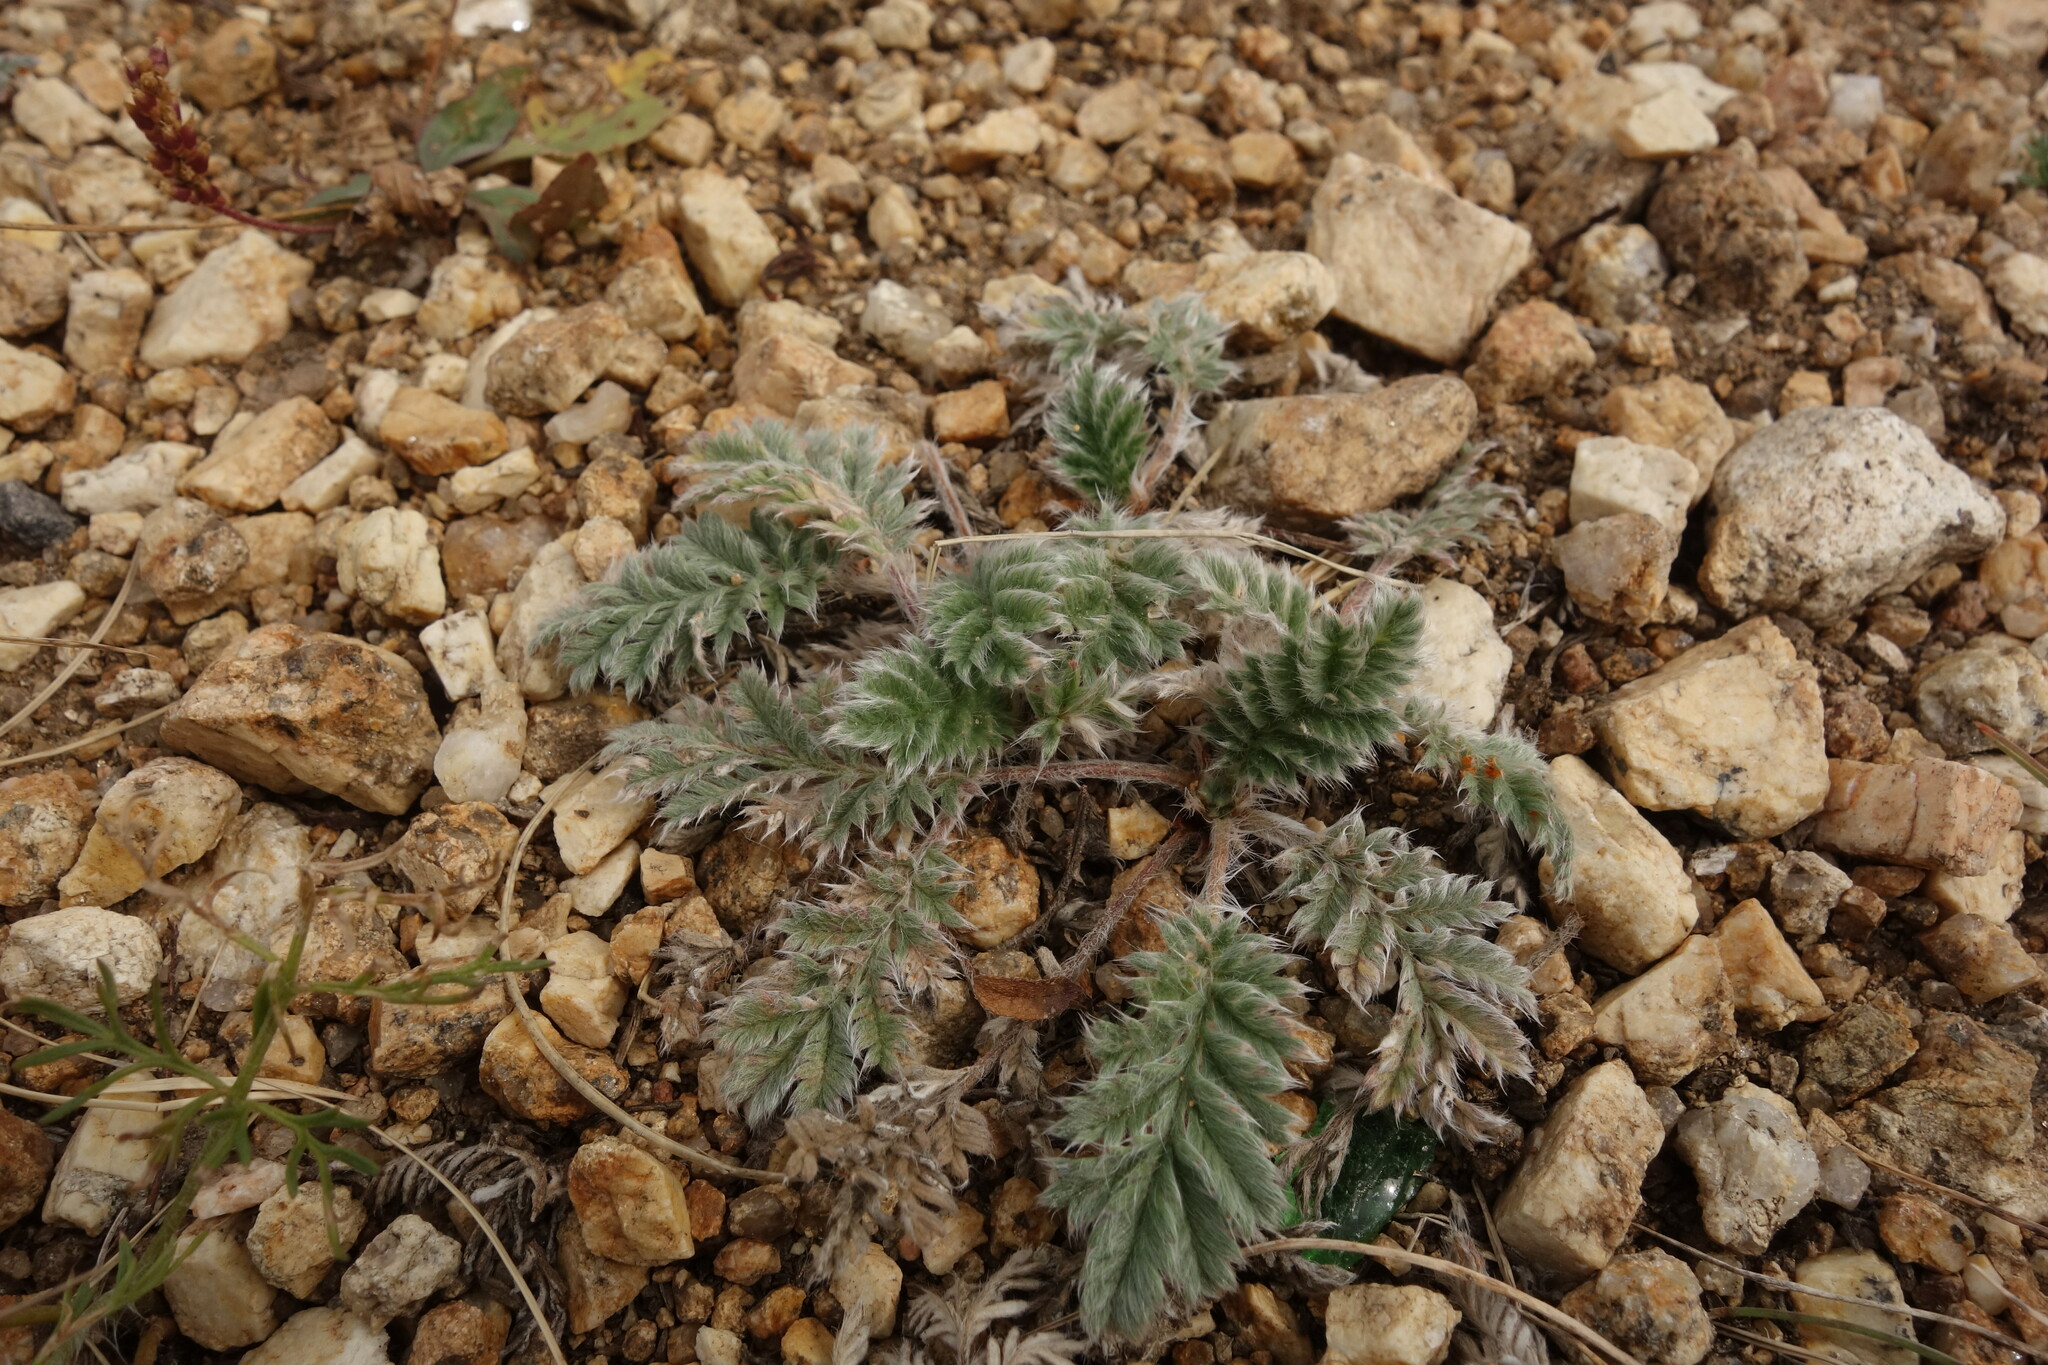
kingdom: Plantae
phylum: Tracheophyta
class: Magnoliopsida
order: Rosales
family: Rosaceae
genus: Potentilla
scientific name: Potentilla sericea
